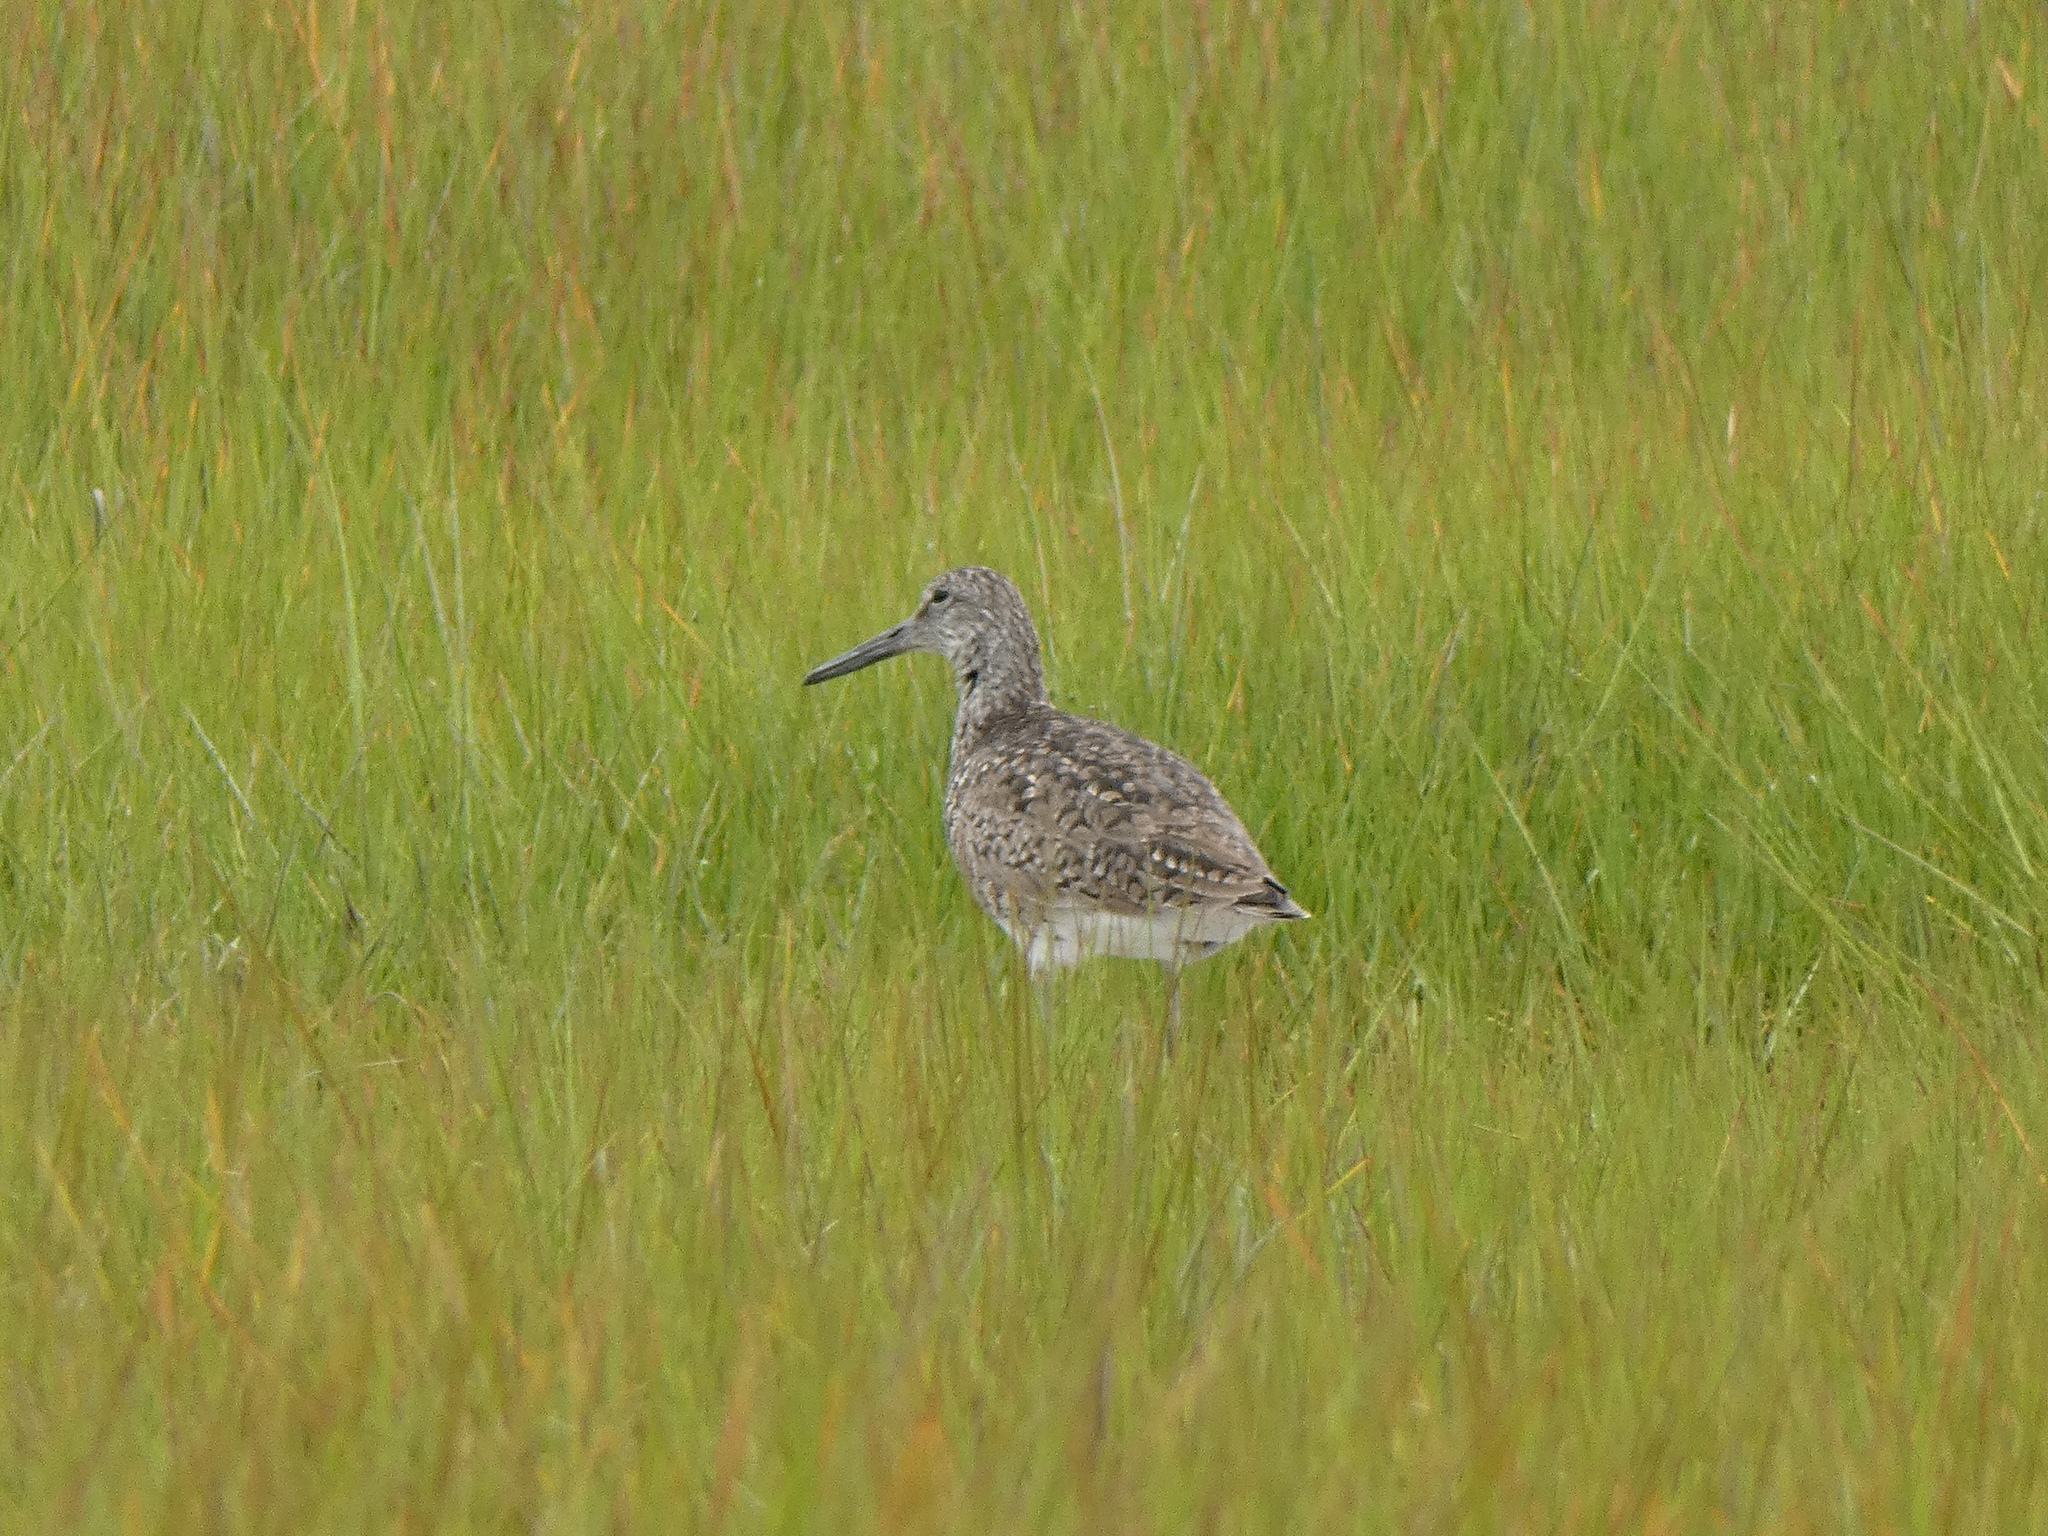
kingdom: Animalia
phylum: Chordata
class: Aves
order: Charadriiformes
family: Scolopacidae
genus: Tringa
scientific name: Tringa semipalmata
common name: Willet
